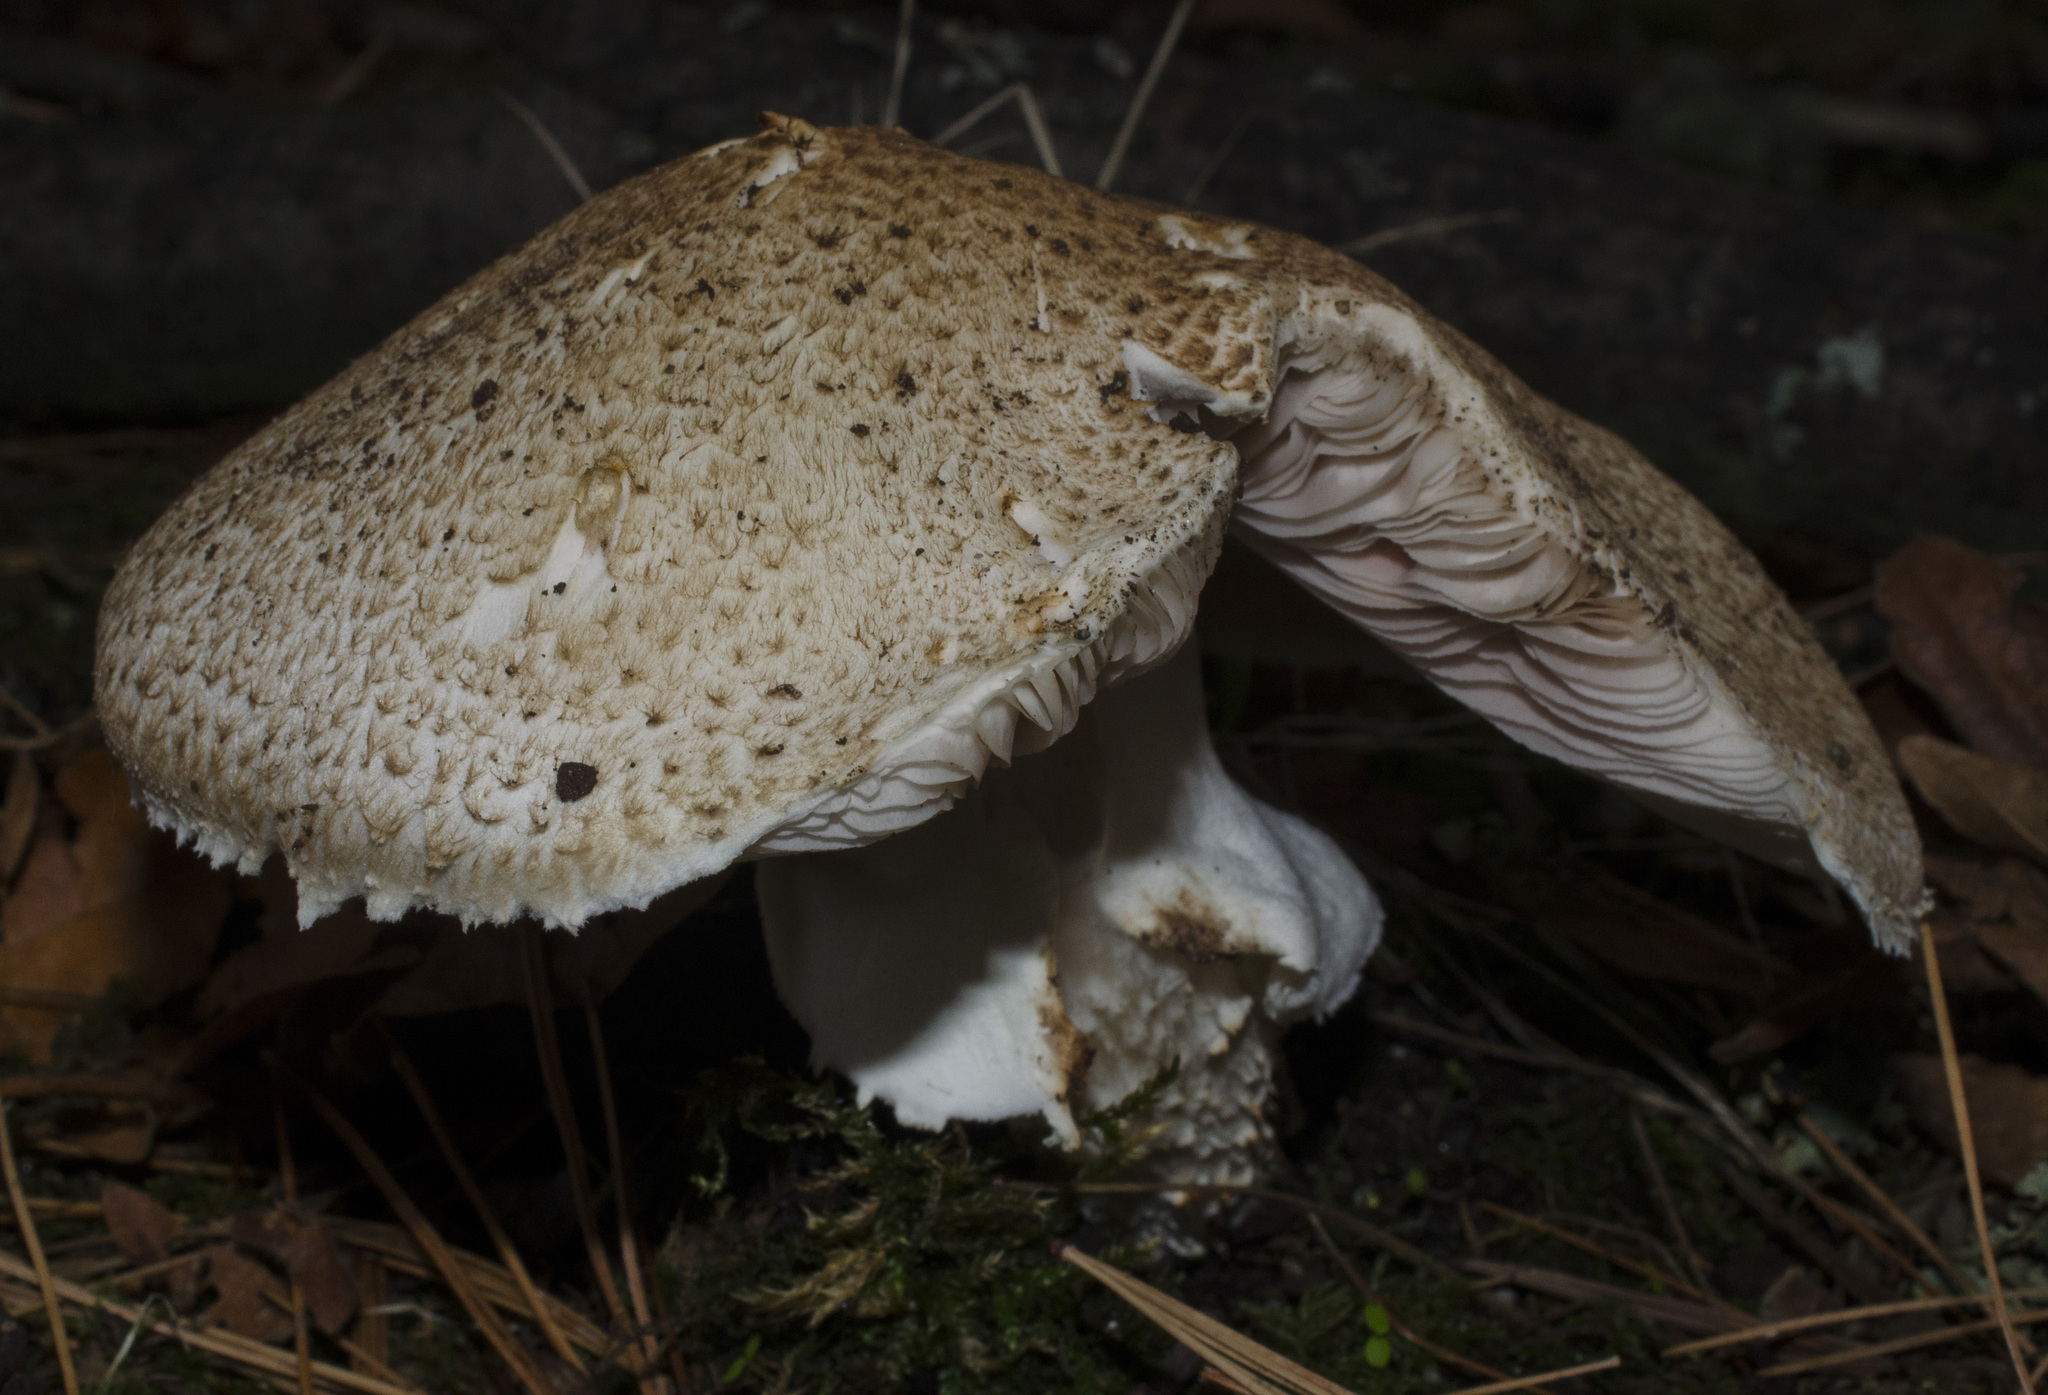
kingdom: Fungi
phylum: Basidiomycota
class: Agaricomycetes
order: Agaricales
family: Agaricaceae
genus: Agaricus
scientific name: Agaricus augustus
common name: Prince
